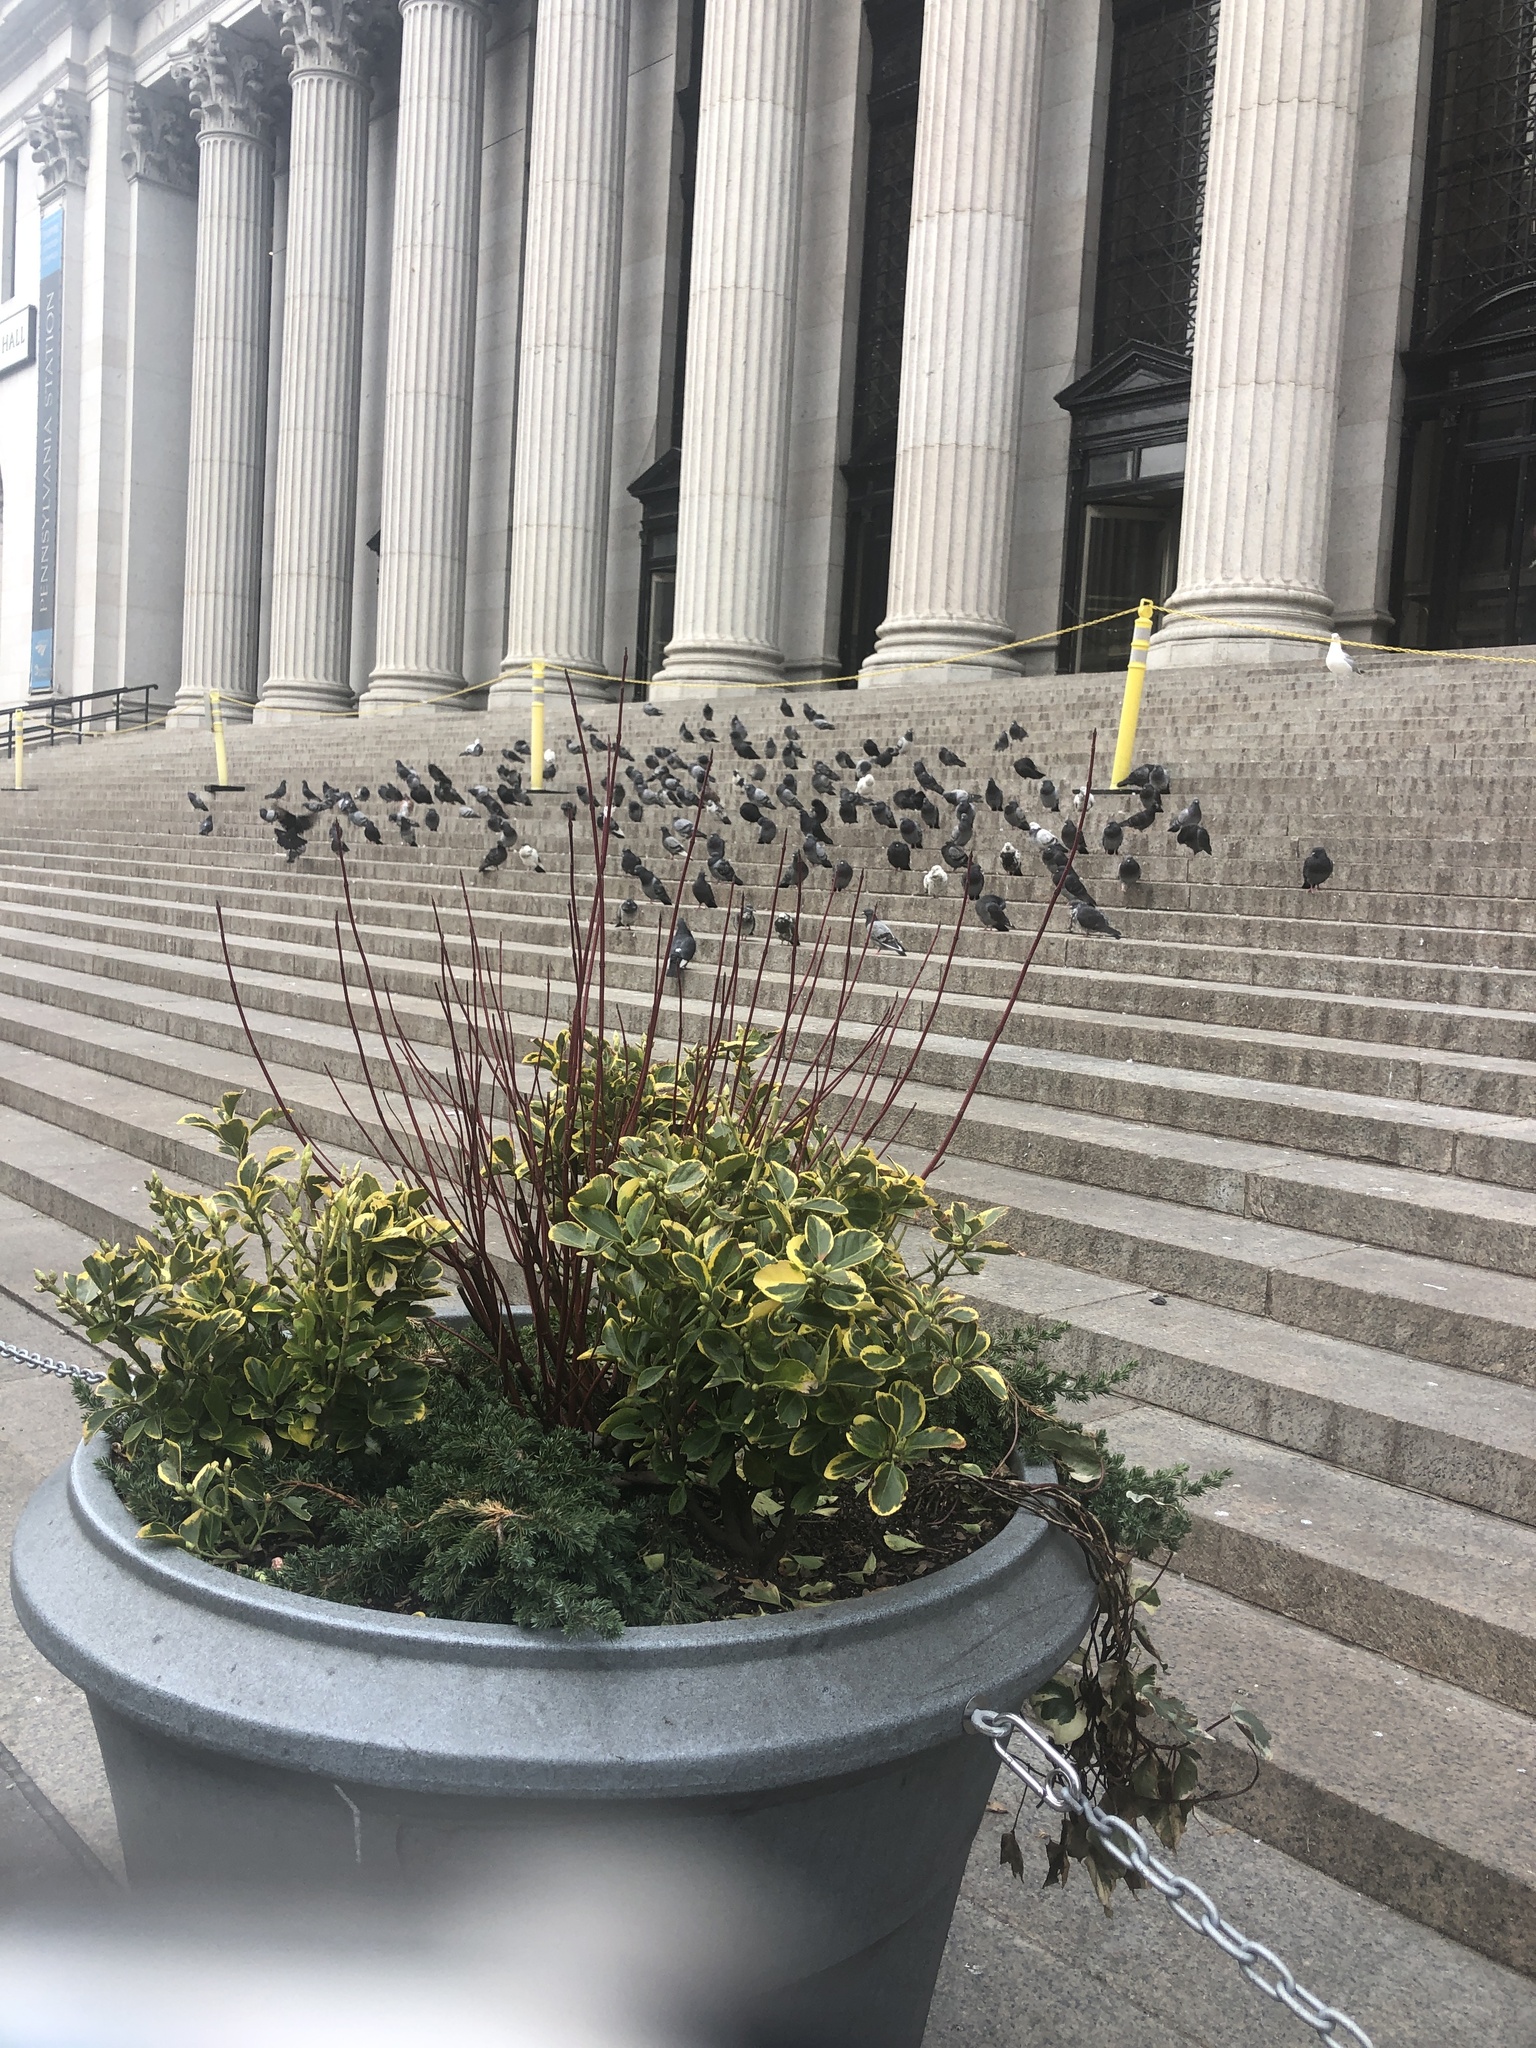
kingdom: Animalia
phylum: Chordata
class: Aves
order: Columbiformes
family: Columbidae
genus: Columba
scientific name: Columba livia
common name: Rock pigeon
